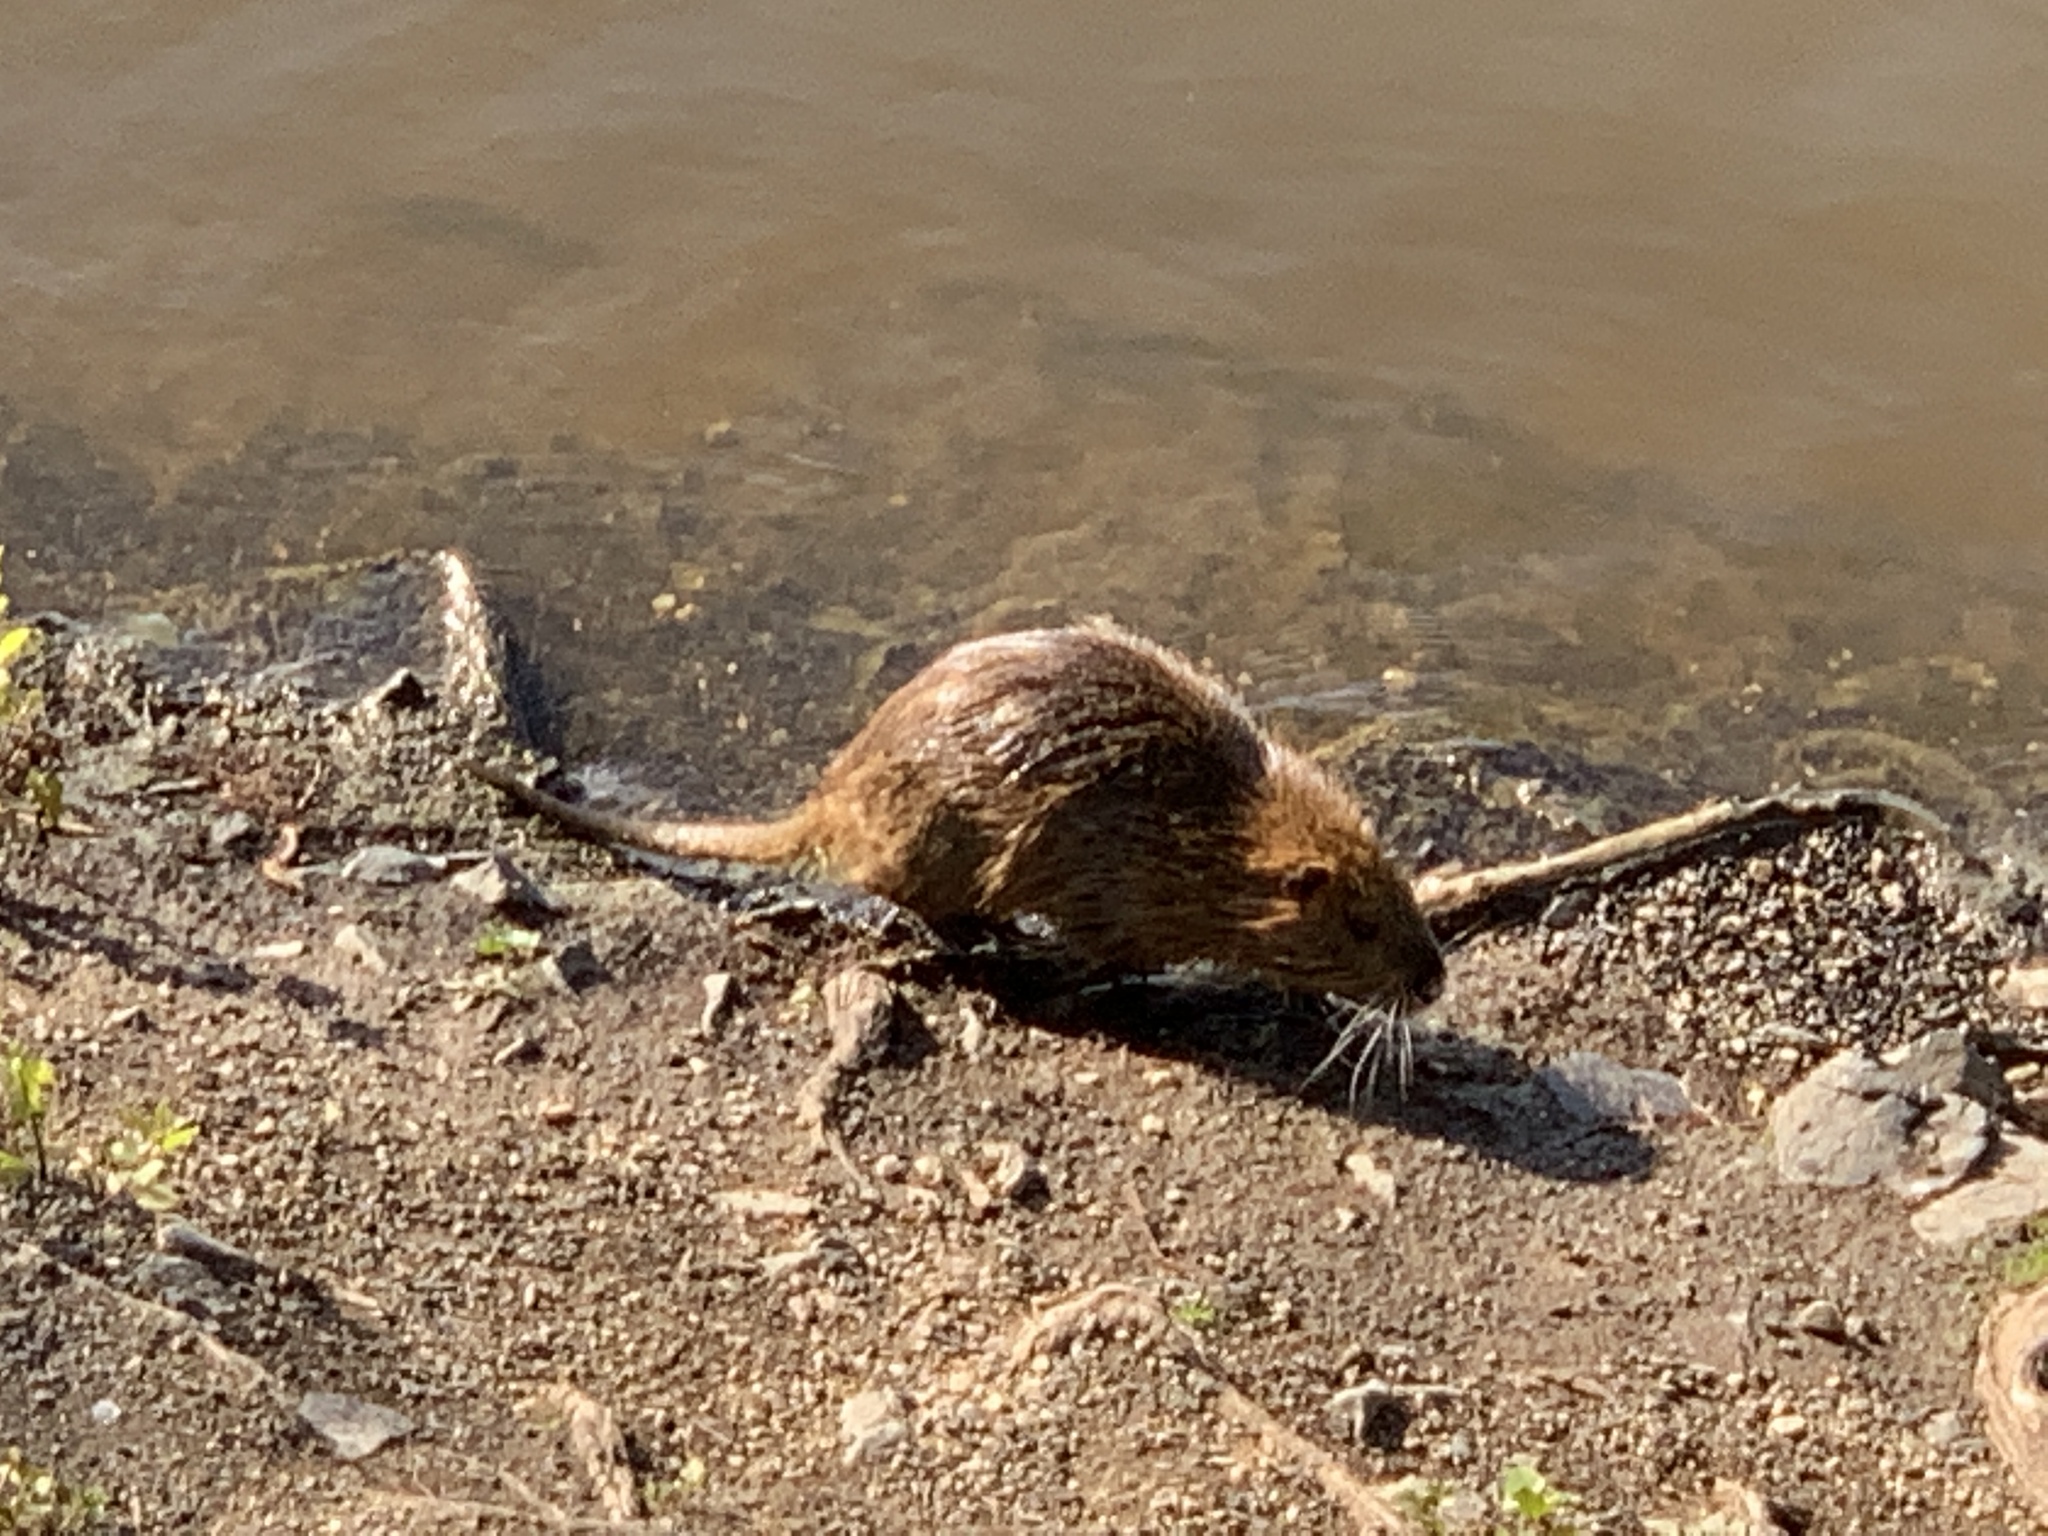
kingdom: Animalia
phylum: Chordata
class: Mammalia
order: Rodentia
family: Myocastoridae
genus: Myocastor
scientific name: Myocastor coypus
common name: Coypu
